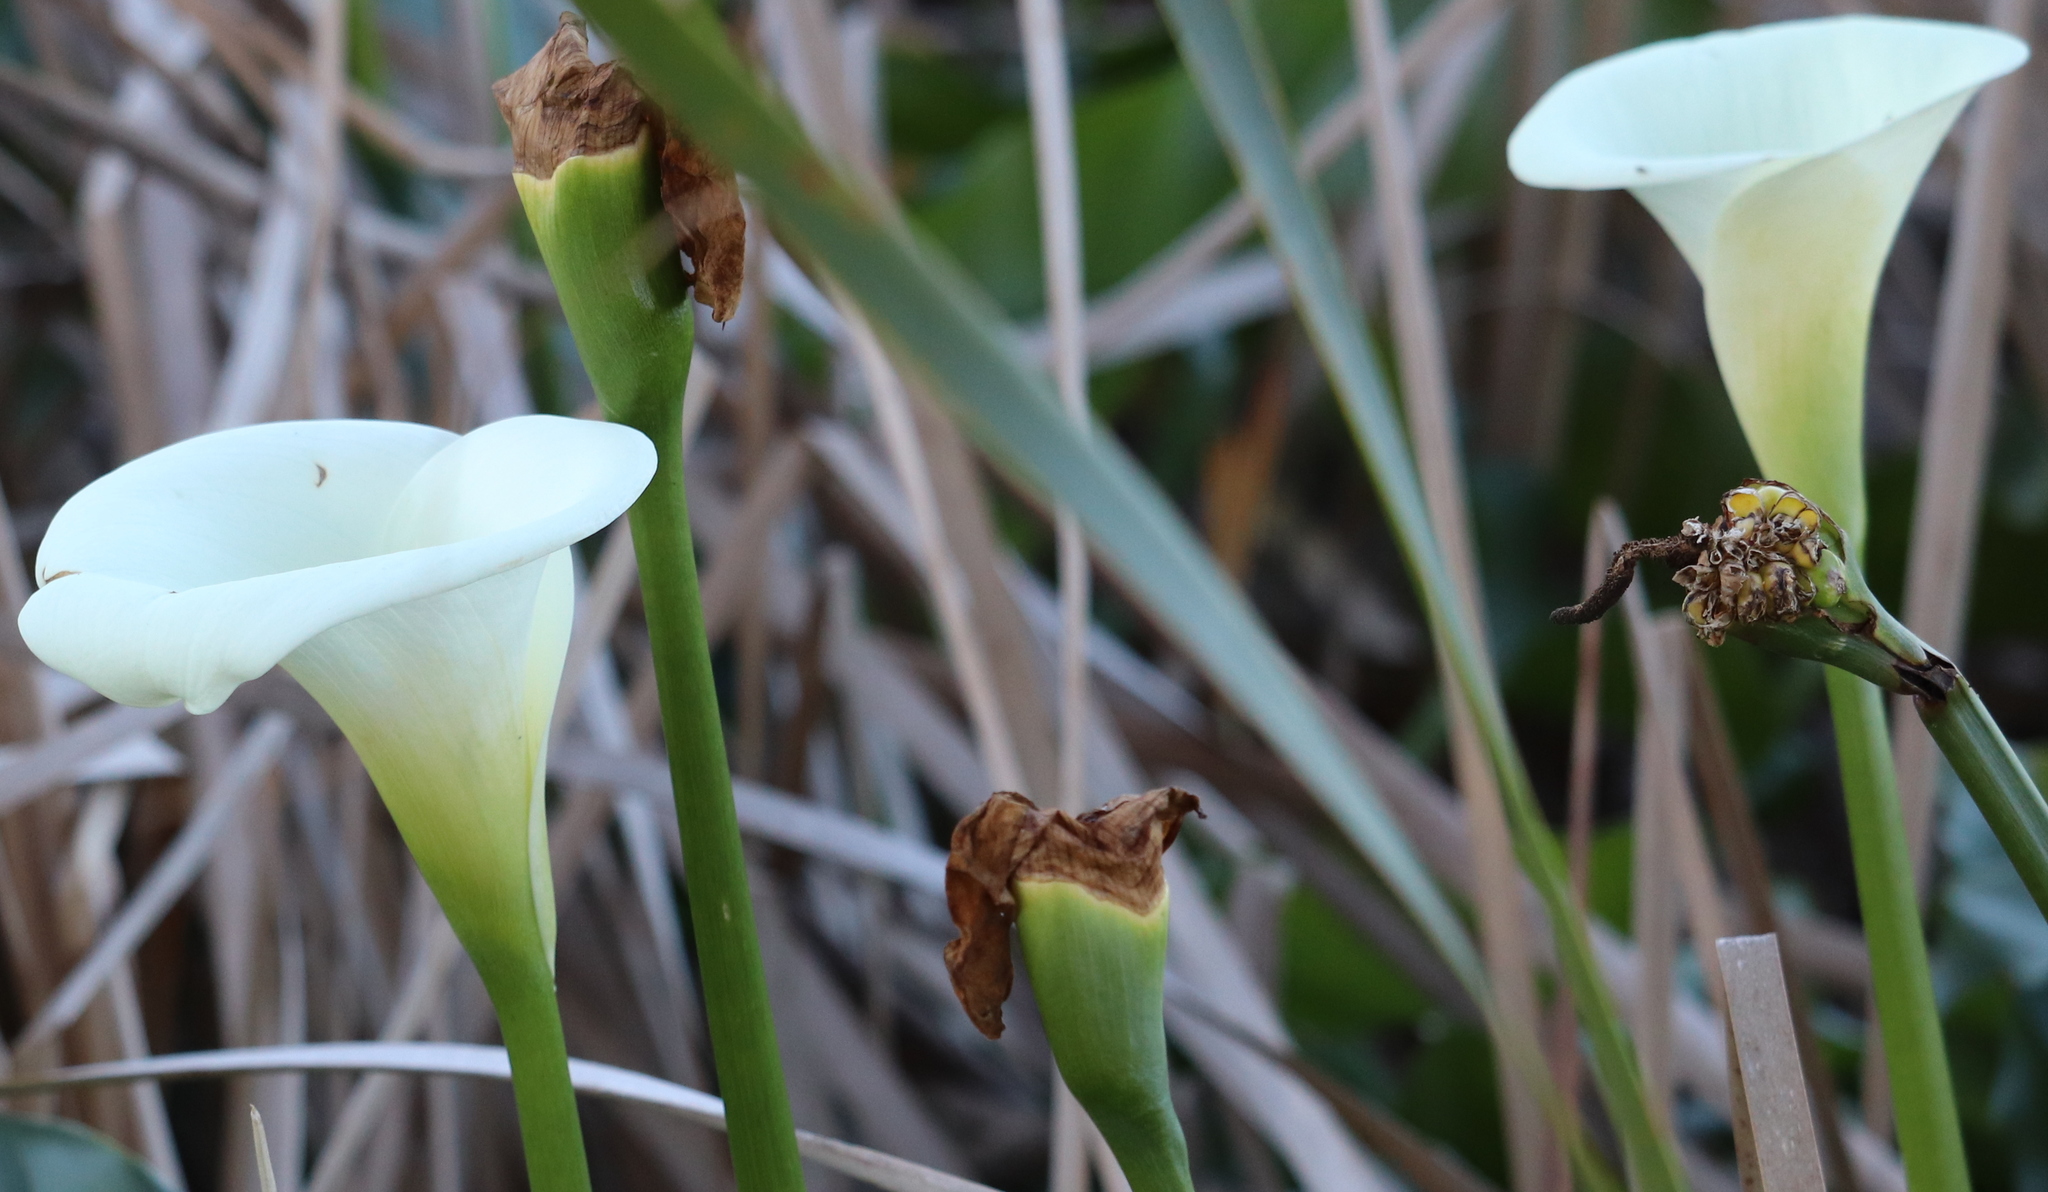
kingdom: Plantae
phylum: Tracheophyta
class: Liliopsida
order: Alismatales
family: Araceae
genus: Zantedeschia
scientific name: Zantedeschia aethiopica
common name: Altar-lily
